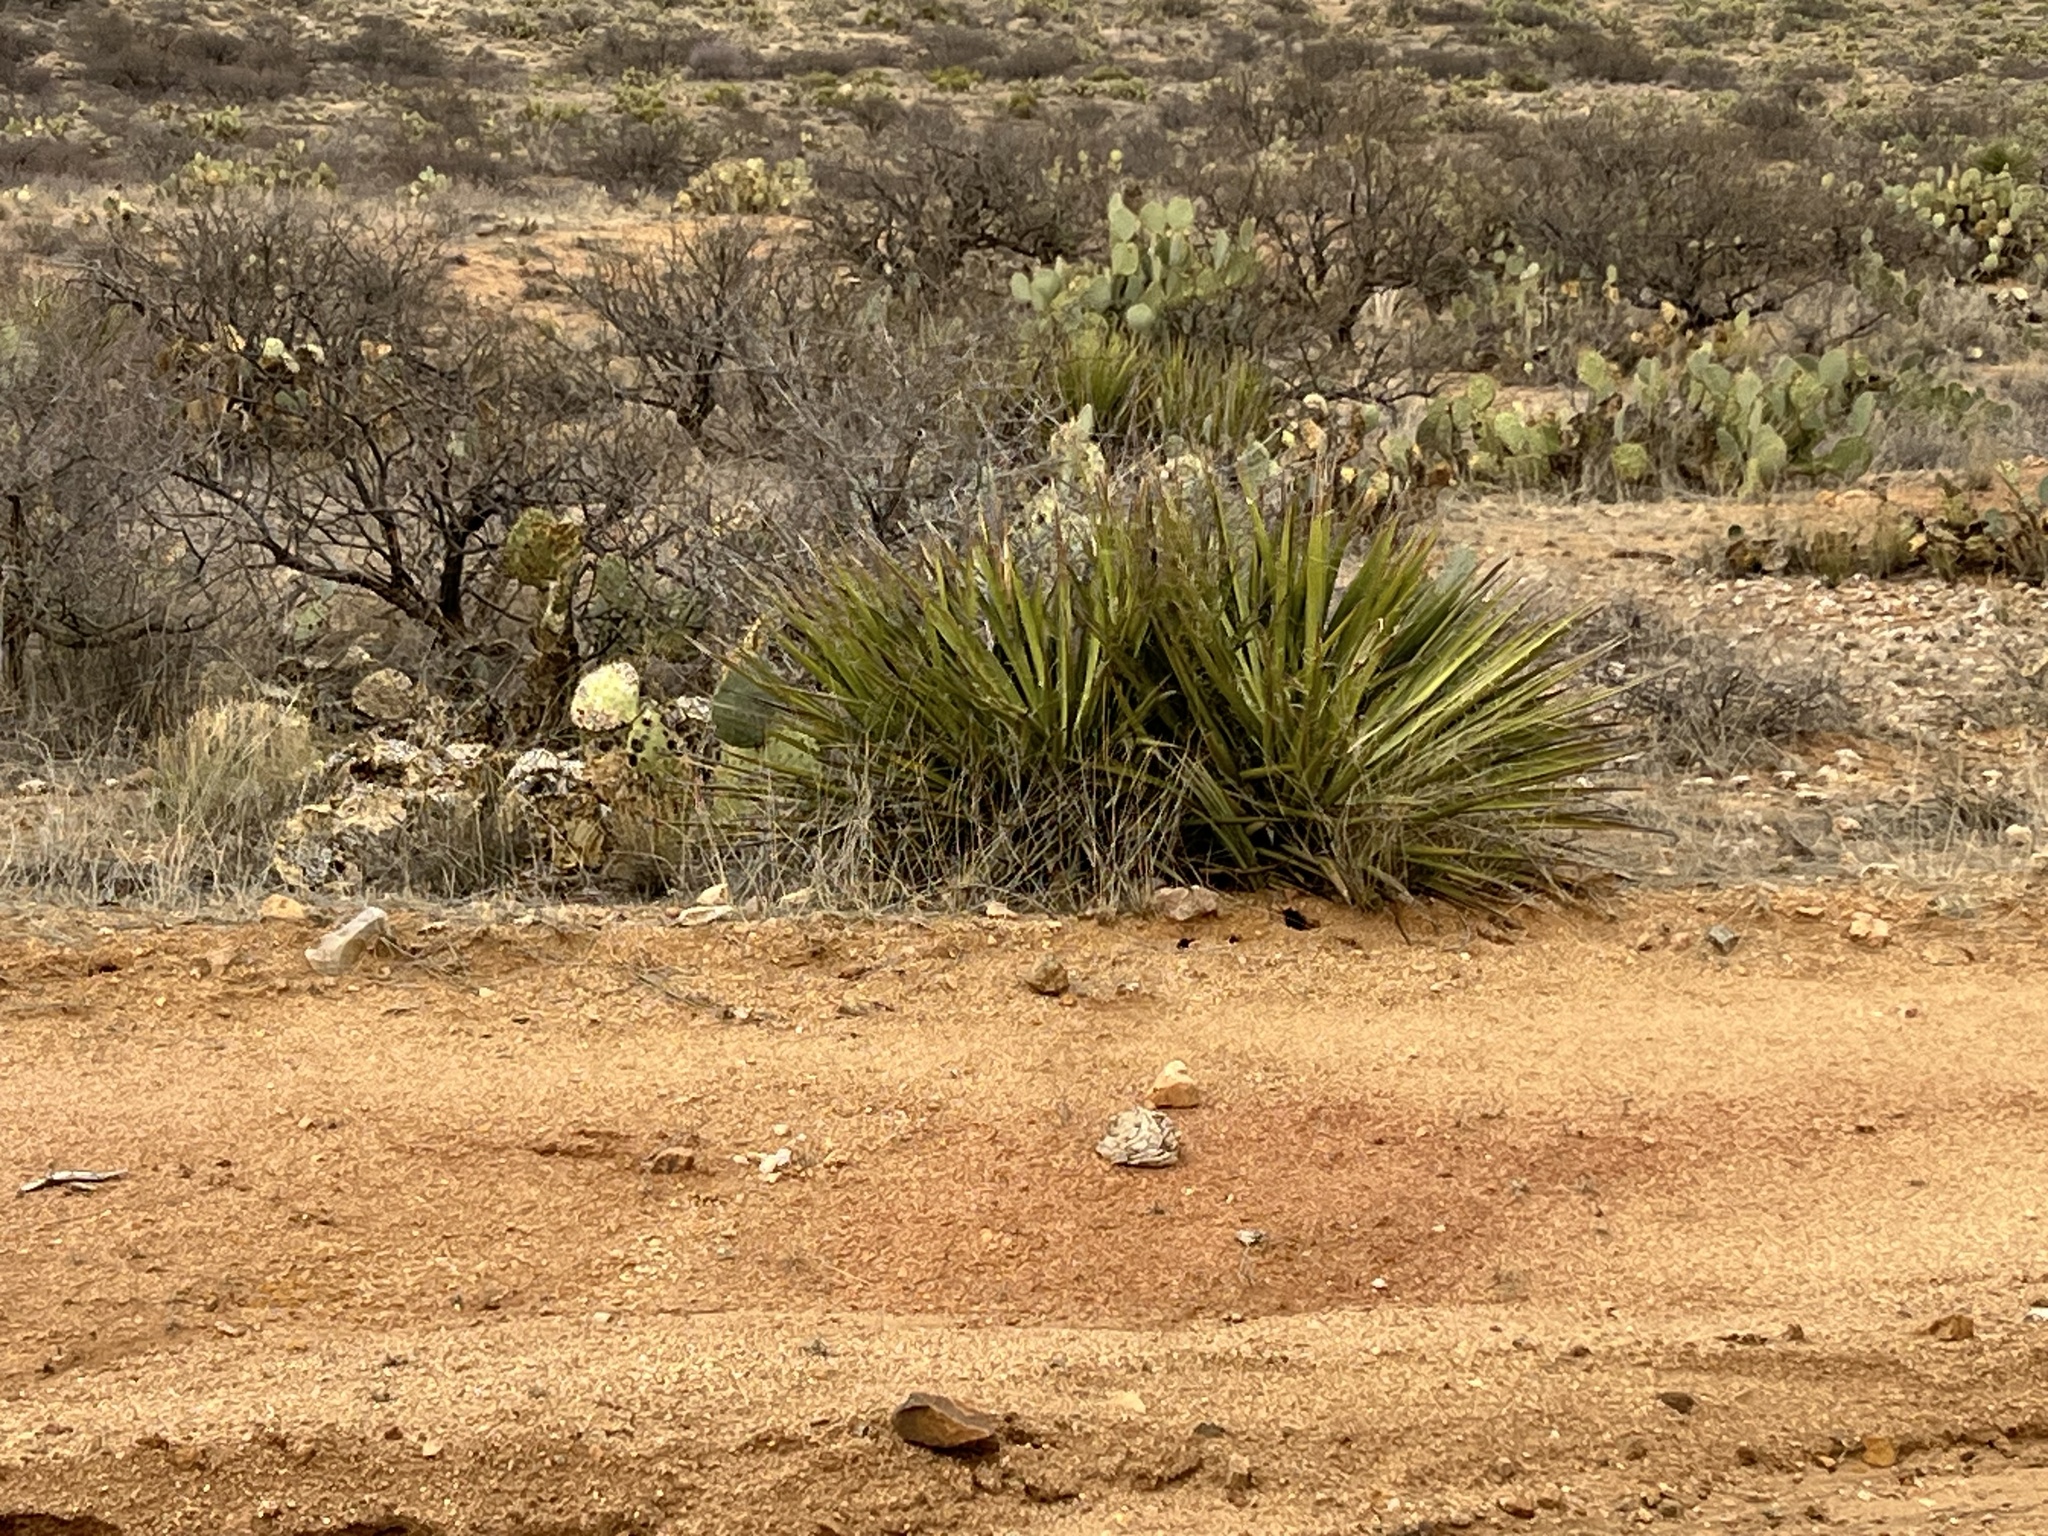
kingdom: Plantae
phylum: Tracheophyta
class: Liliopsida
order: Asparagales
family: Asparagaceae
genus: Yucca
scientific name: Yucca baccata
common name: Banana yucca
